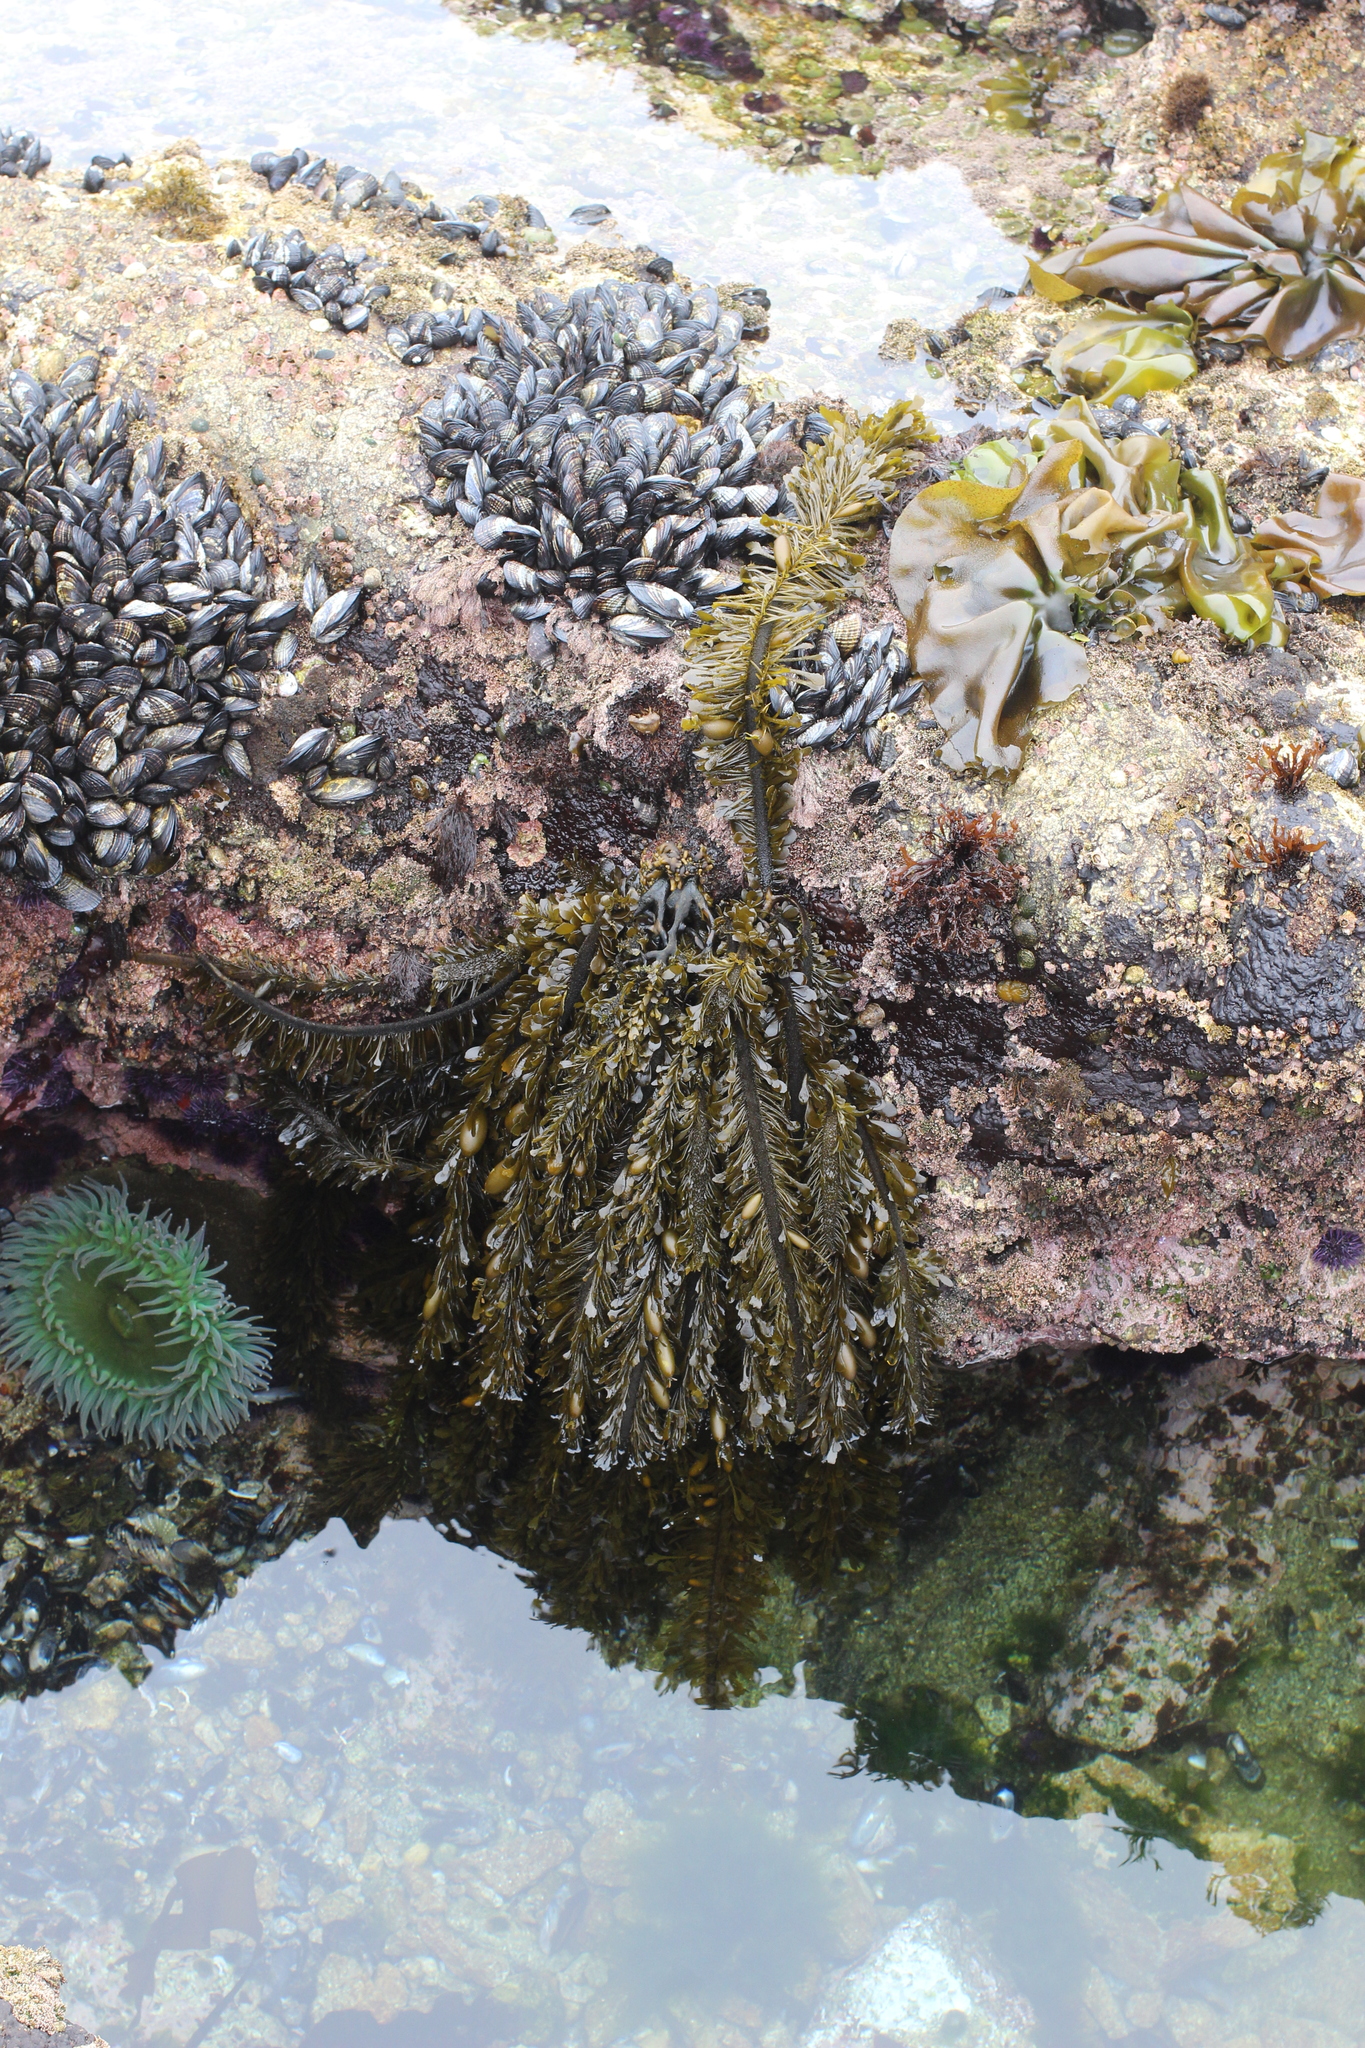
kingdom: Chromista
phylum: Ochrophyta
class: Phaeophyceae
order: Laminariales
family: Lessoniaceae
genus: Egregia
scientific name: Egregia menziesii
